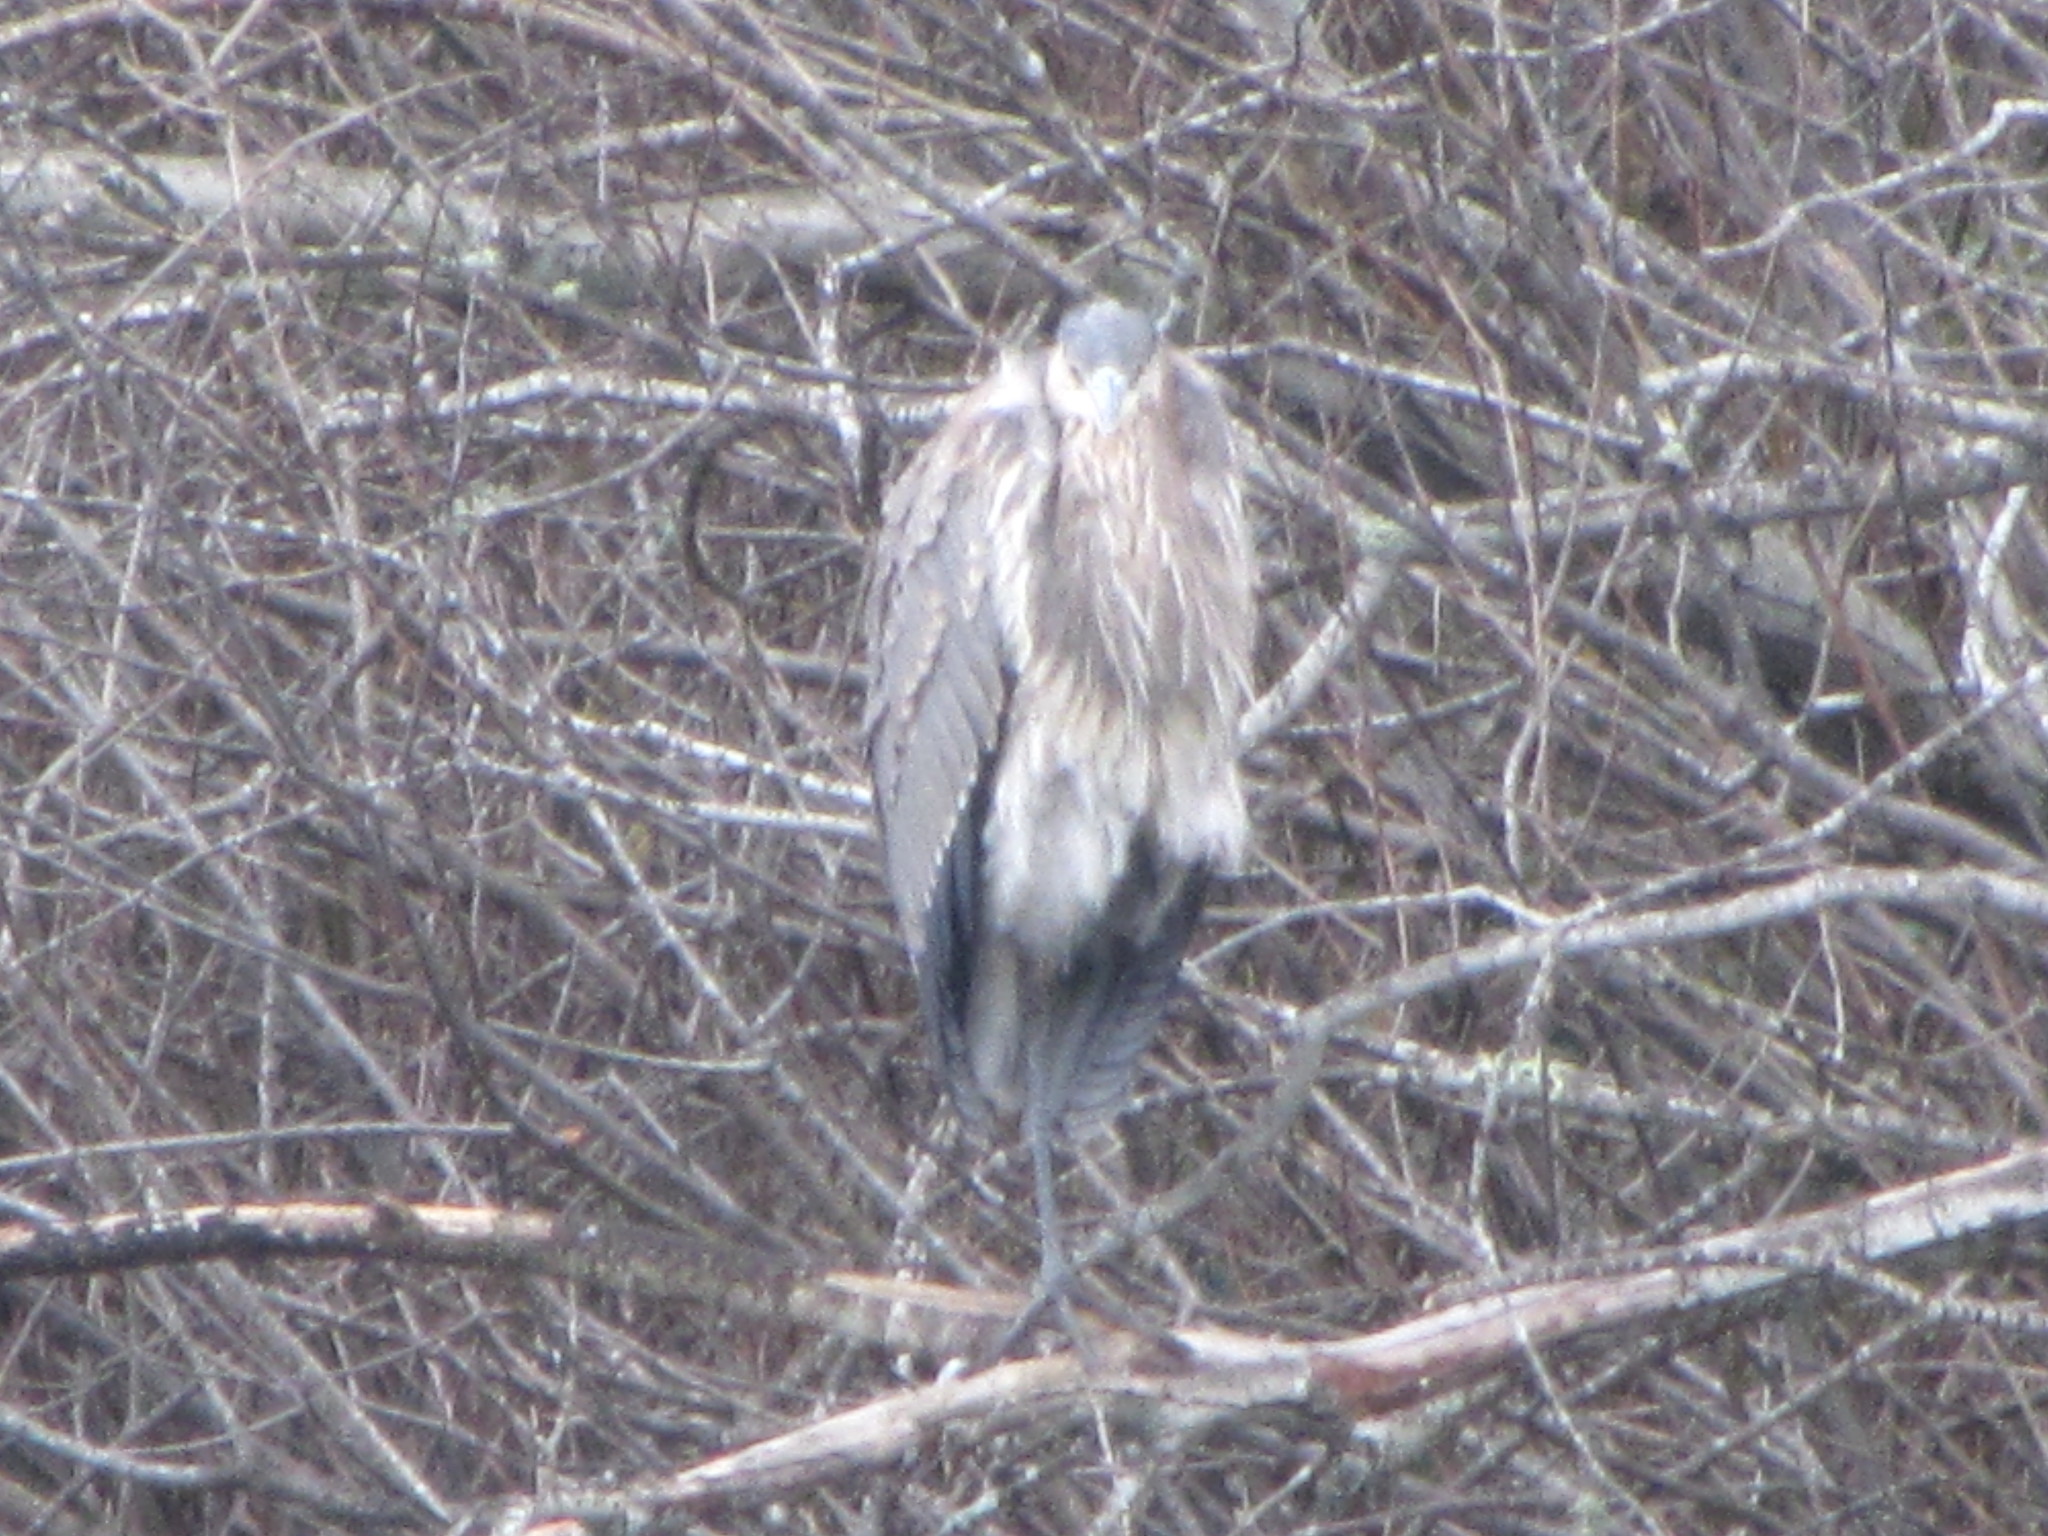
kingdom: Animalia
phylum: Chordata
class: Aves
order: Pelecaniformes
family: Ardeidae
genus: Ardea
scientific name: Ardea herodias
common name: Great blue heron
